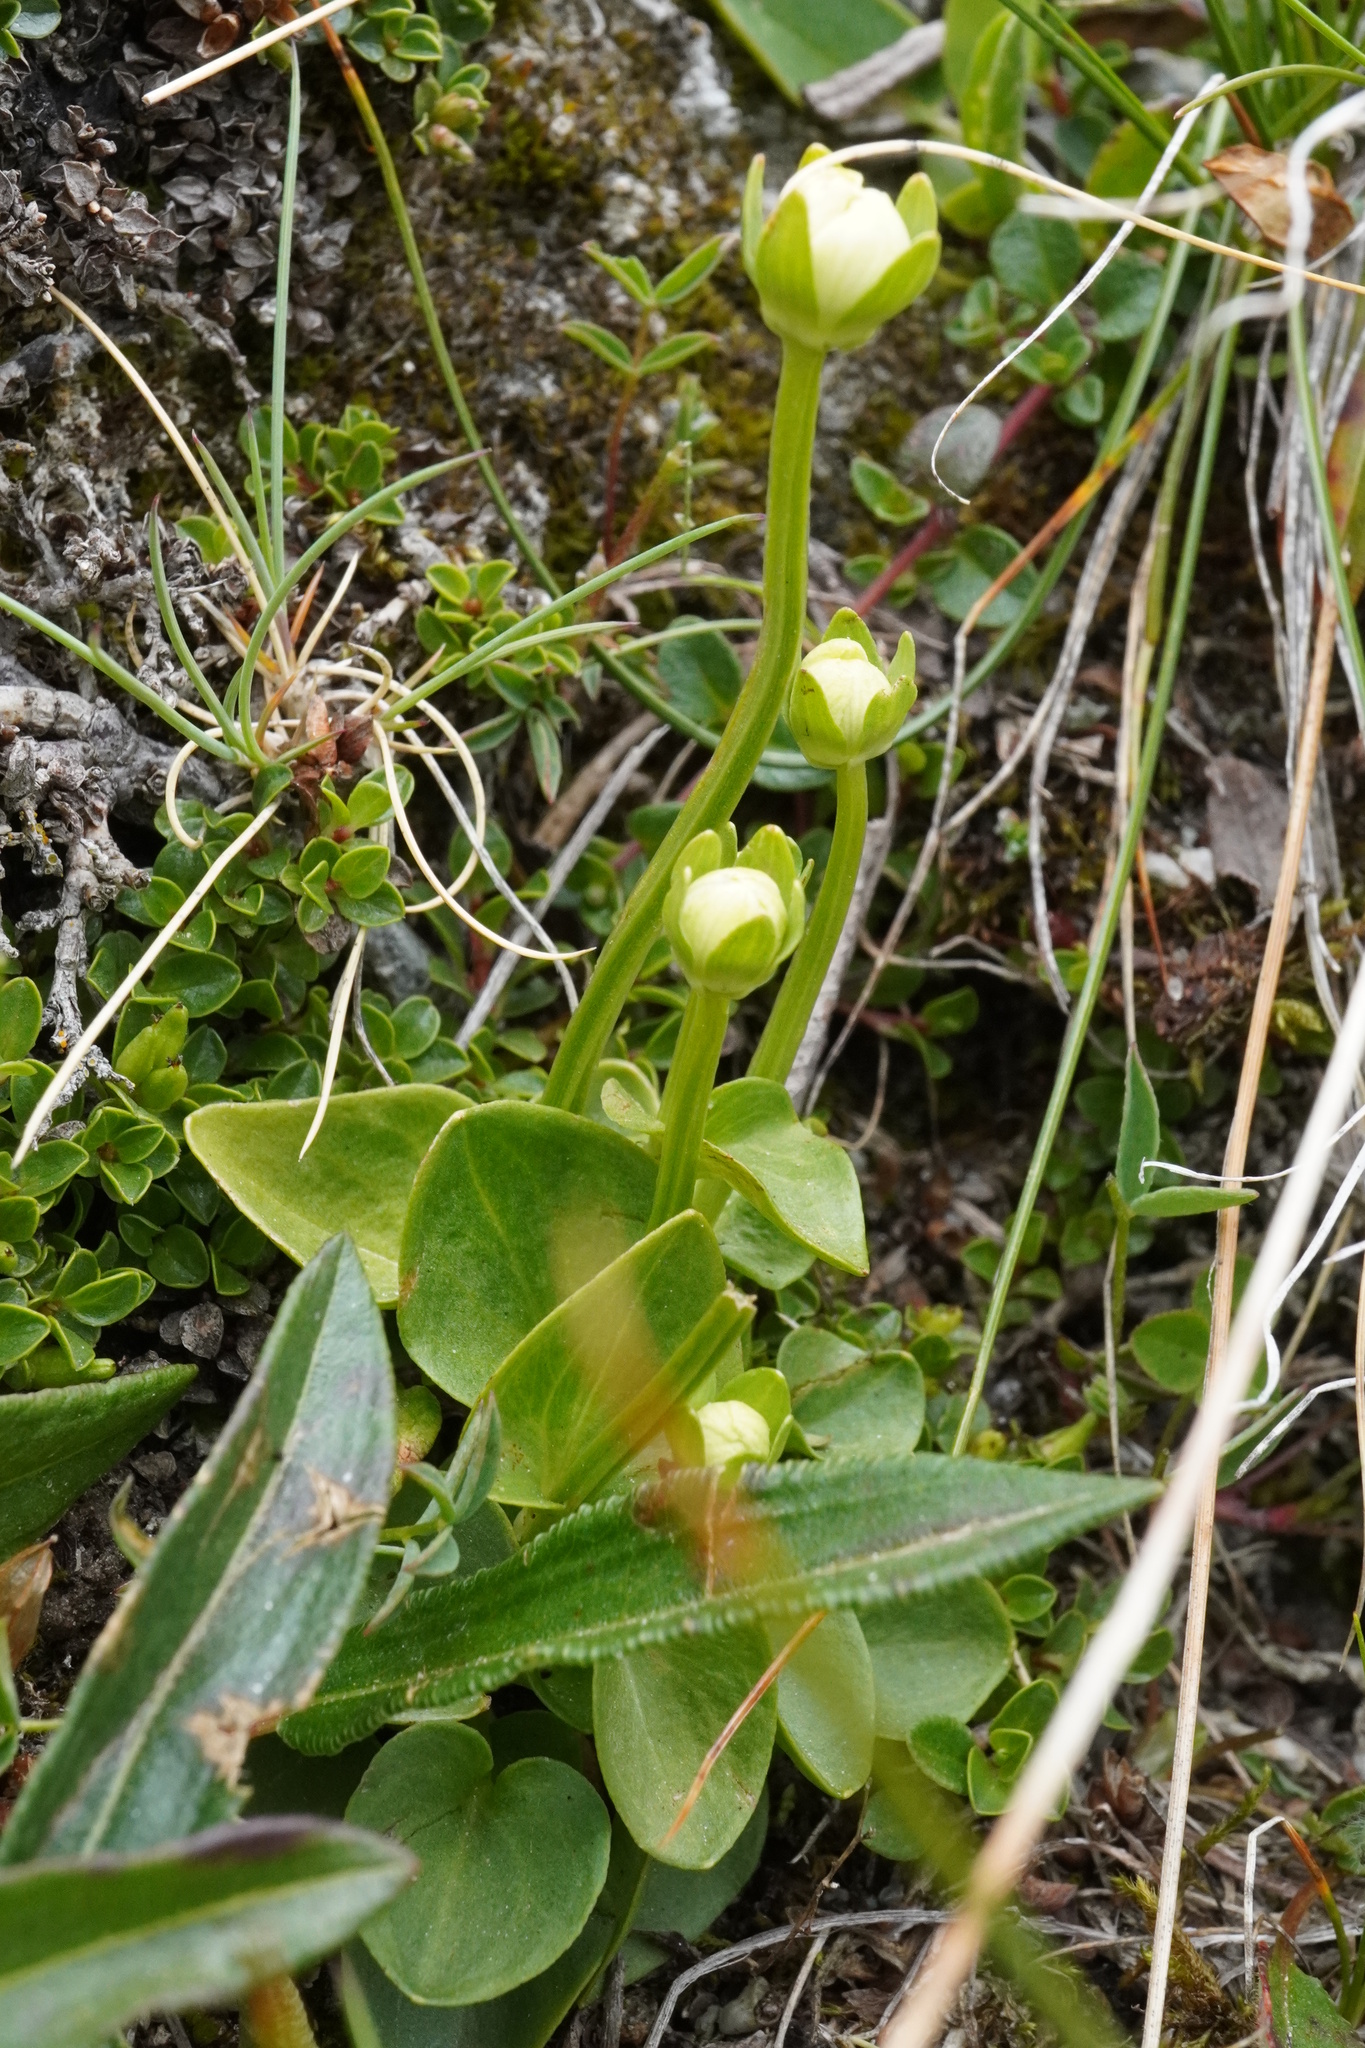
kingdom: Plantae
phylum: Tracheophyta
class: Magnoliopsida
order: Celastrales
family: Parnassiaceae
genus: Parnassia
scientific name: Parnassia palustris
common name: Grass-of-parnassus
